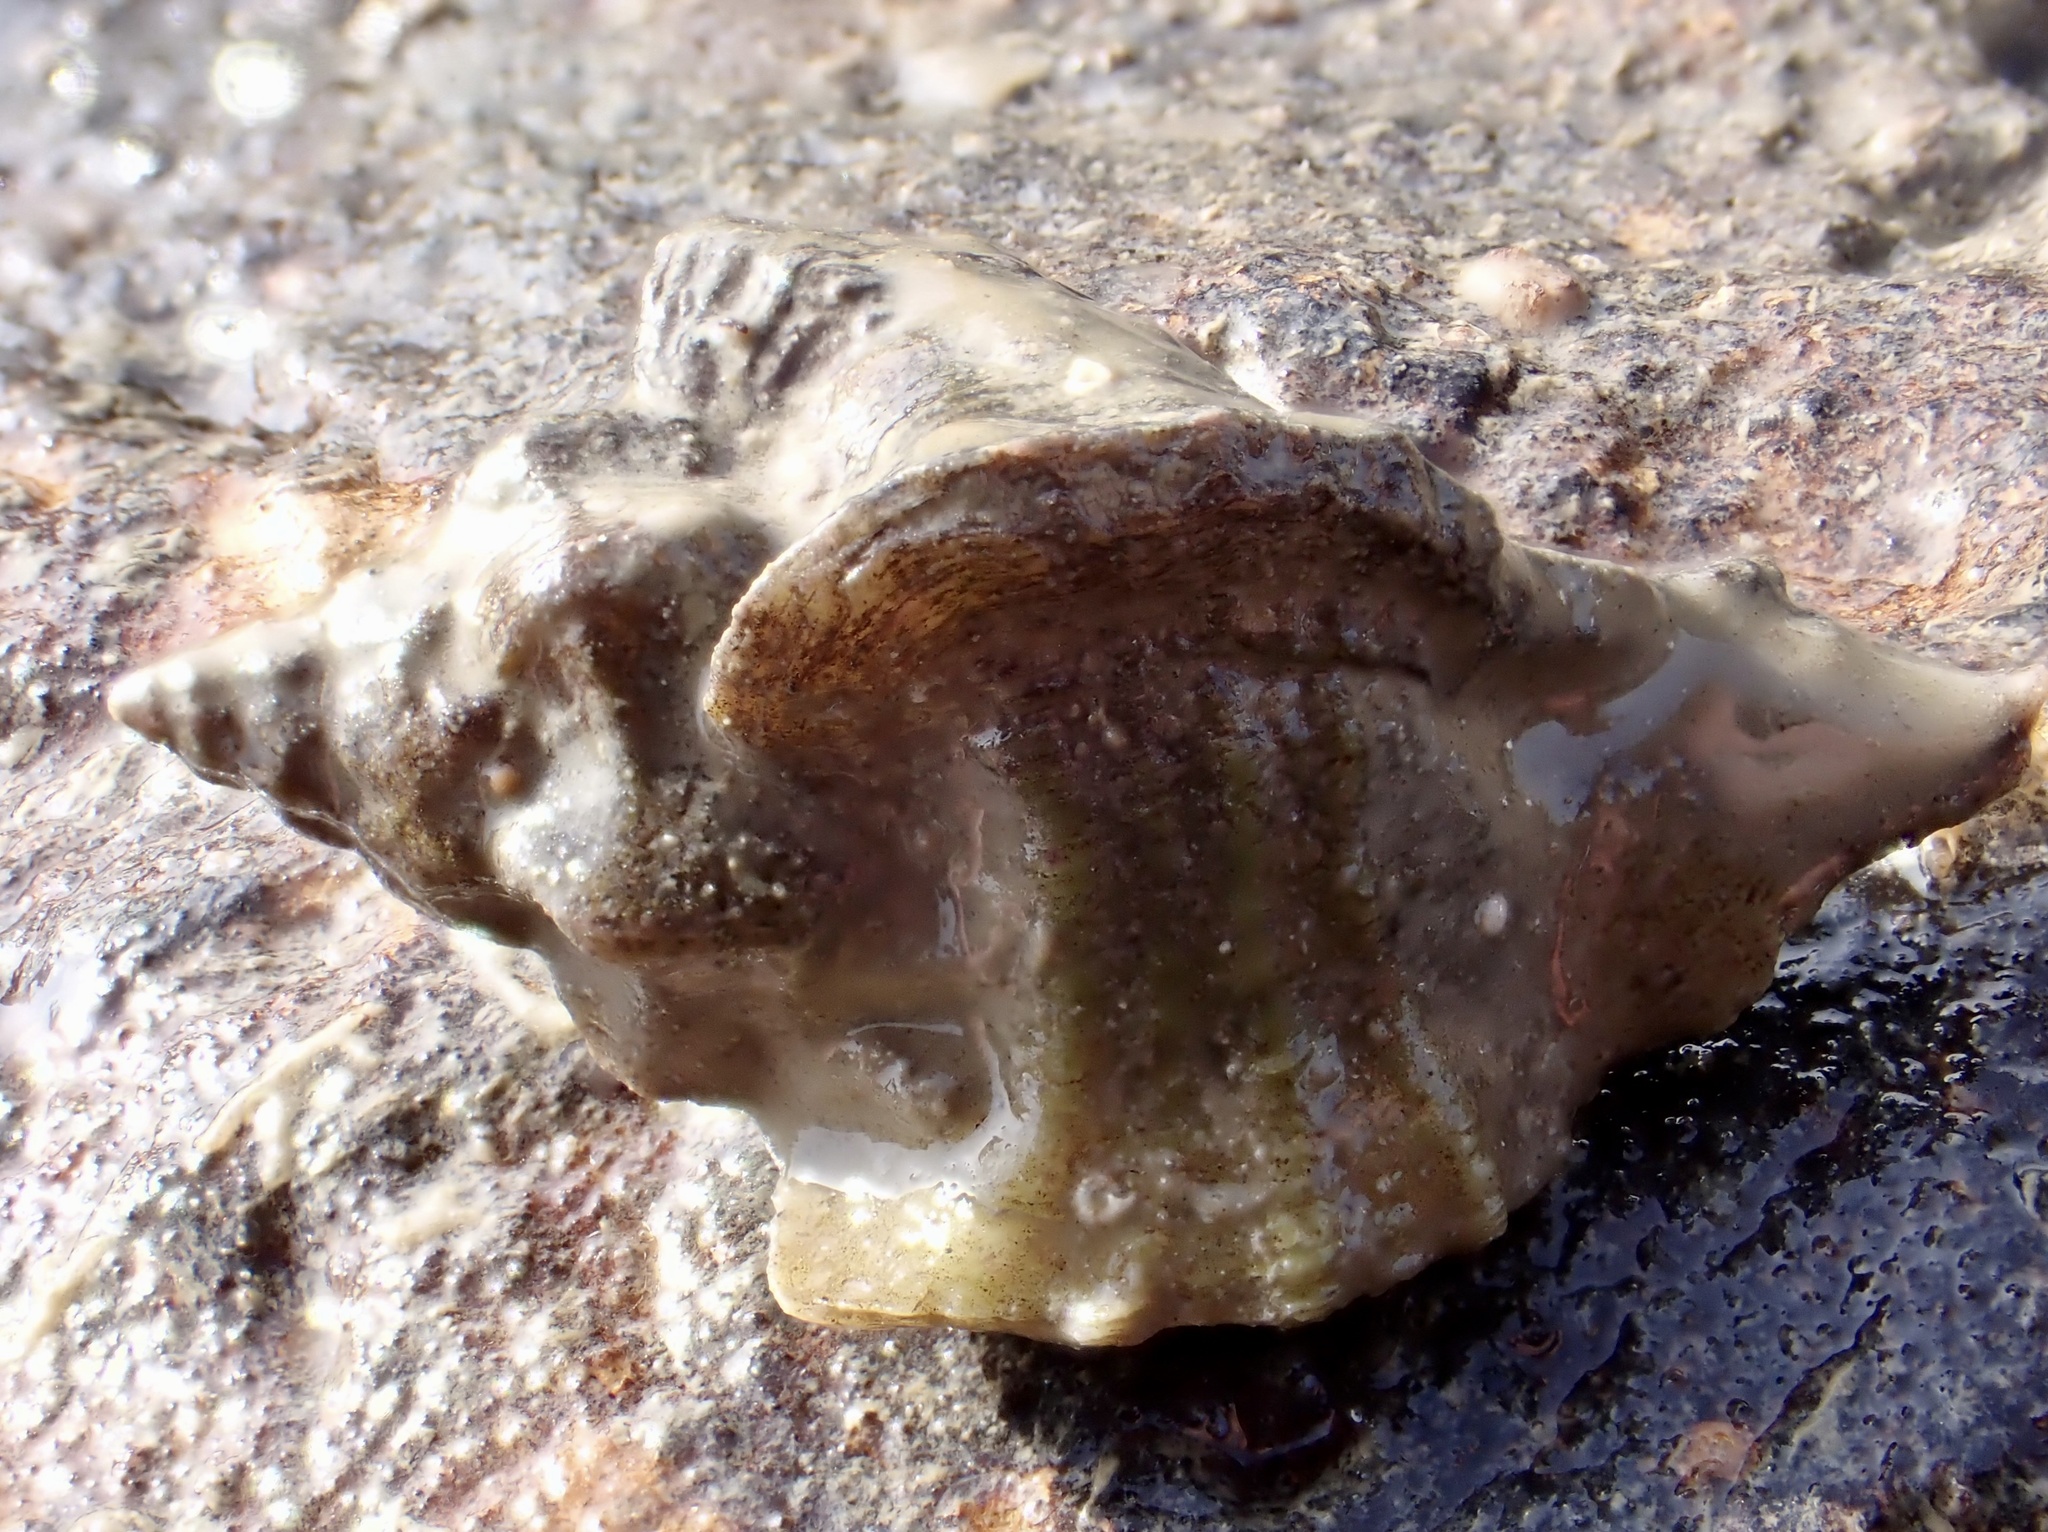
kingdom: Animalia
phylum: Mollusca
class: Gastropoda
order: Neogastropoda
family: Muricidae
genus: Ocinebrellus
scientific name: Ocinebrellus inornatus
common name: Asian drill snail
